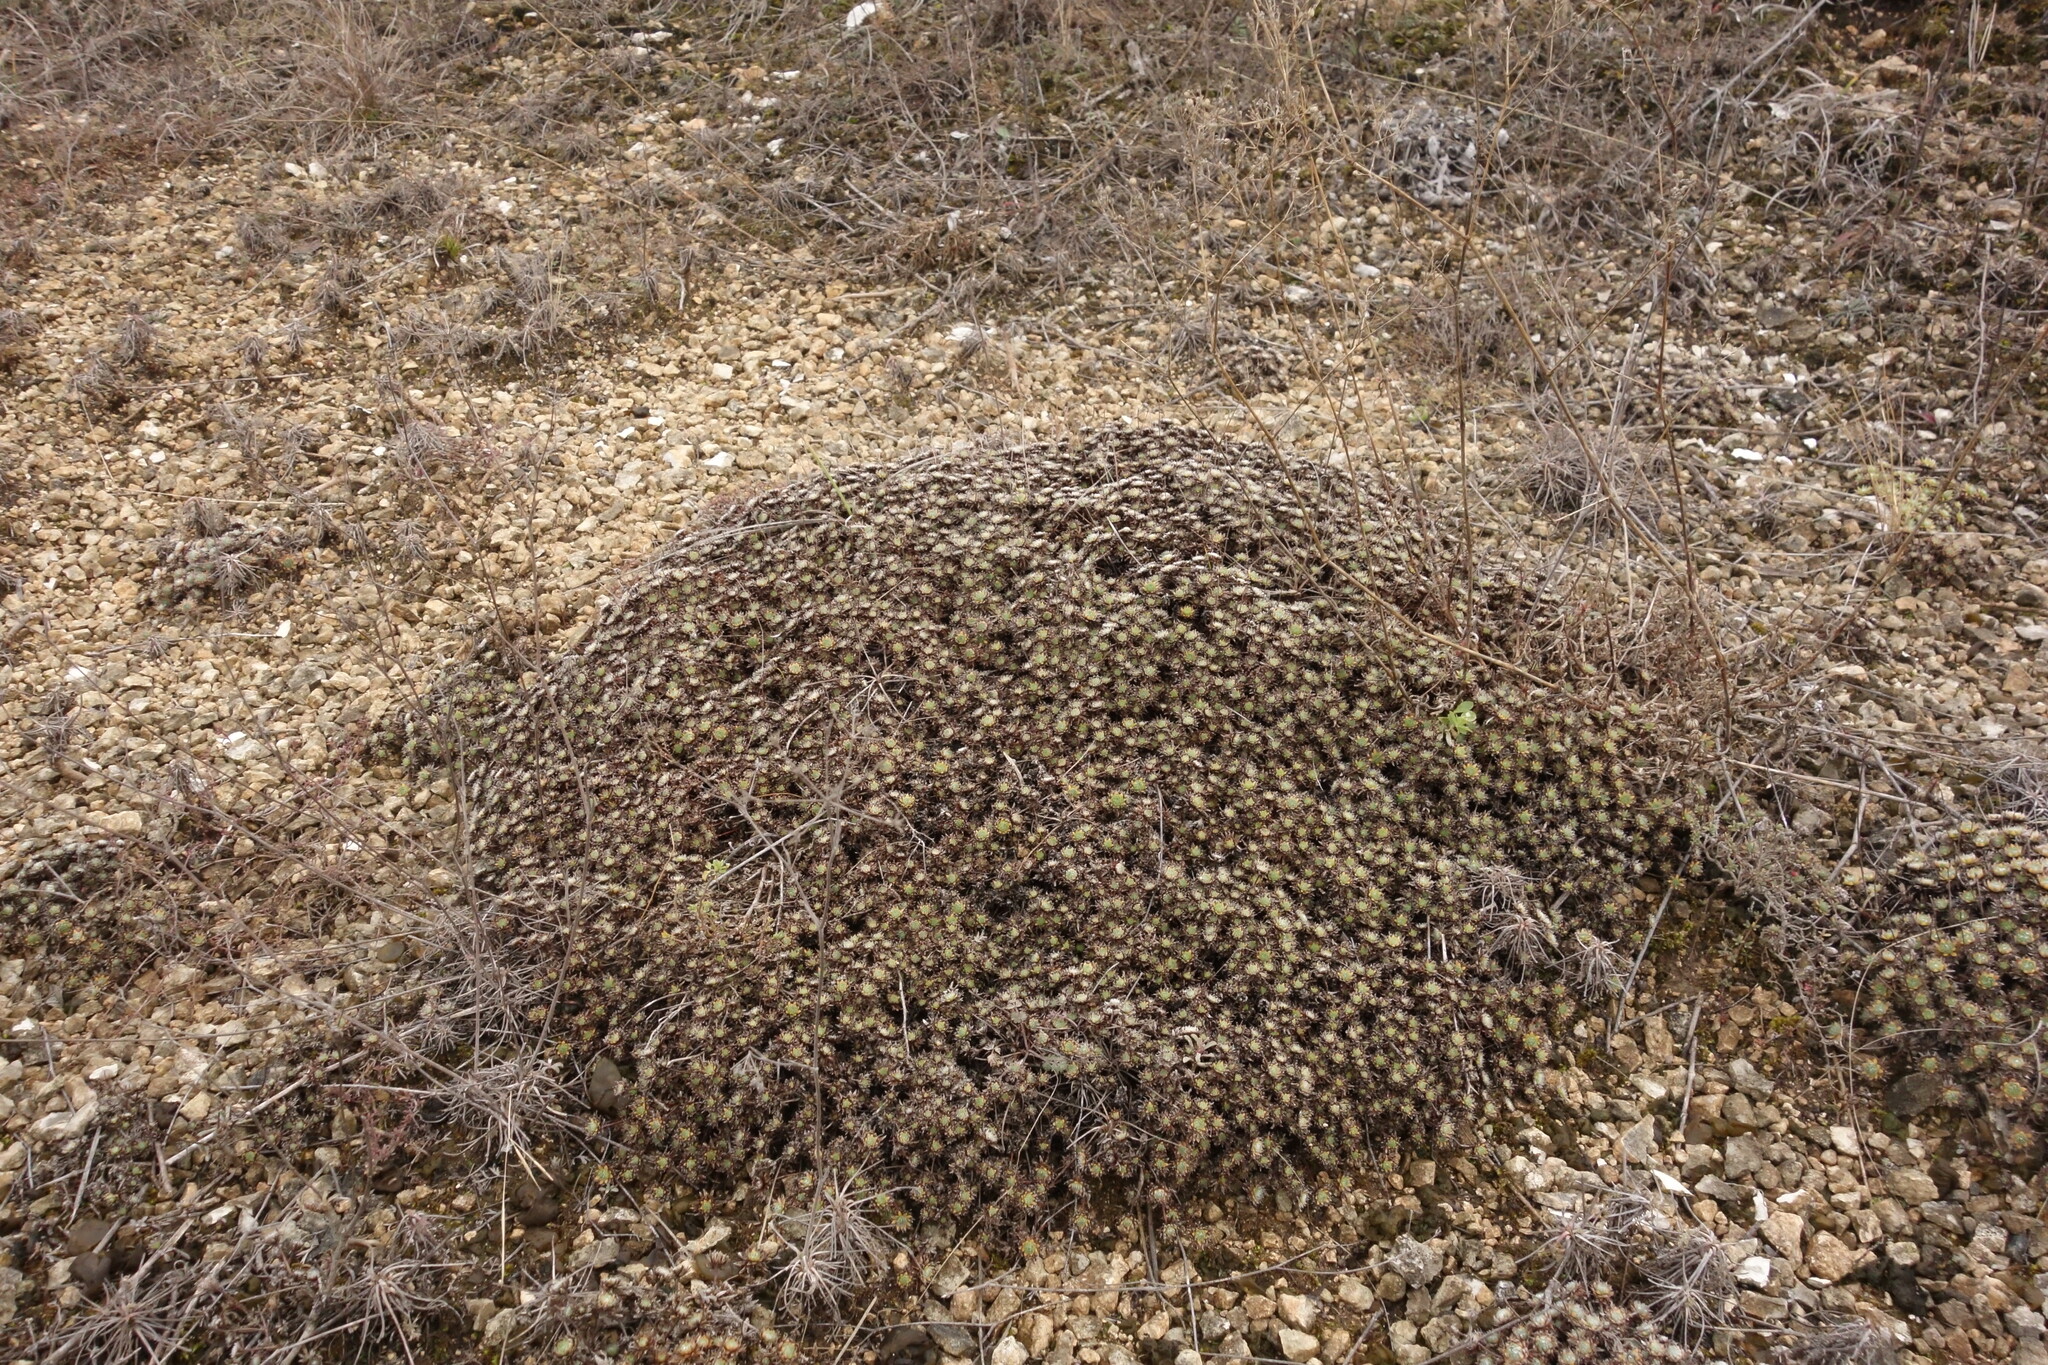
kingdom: Plantae
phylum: Tracheophyta
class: Magnoliopsida
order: Ericales
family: Primulaceae
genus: Androsace
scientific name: Androsace villosa
